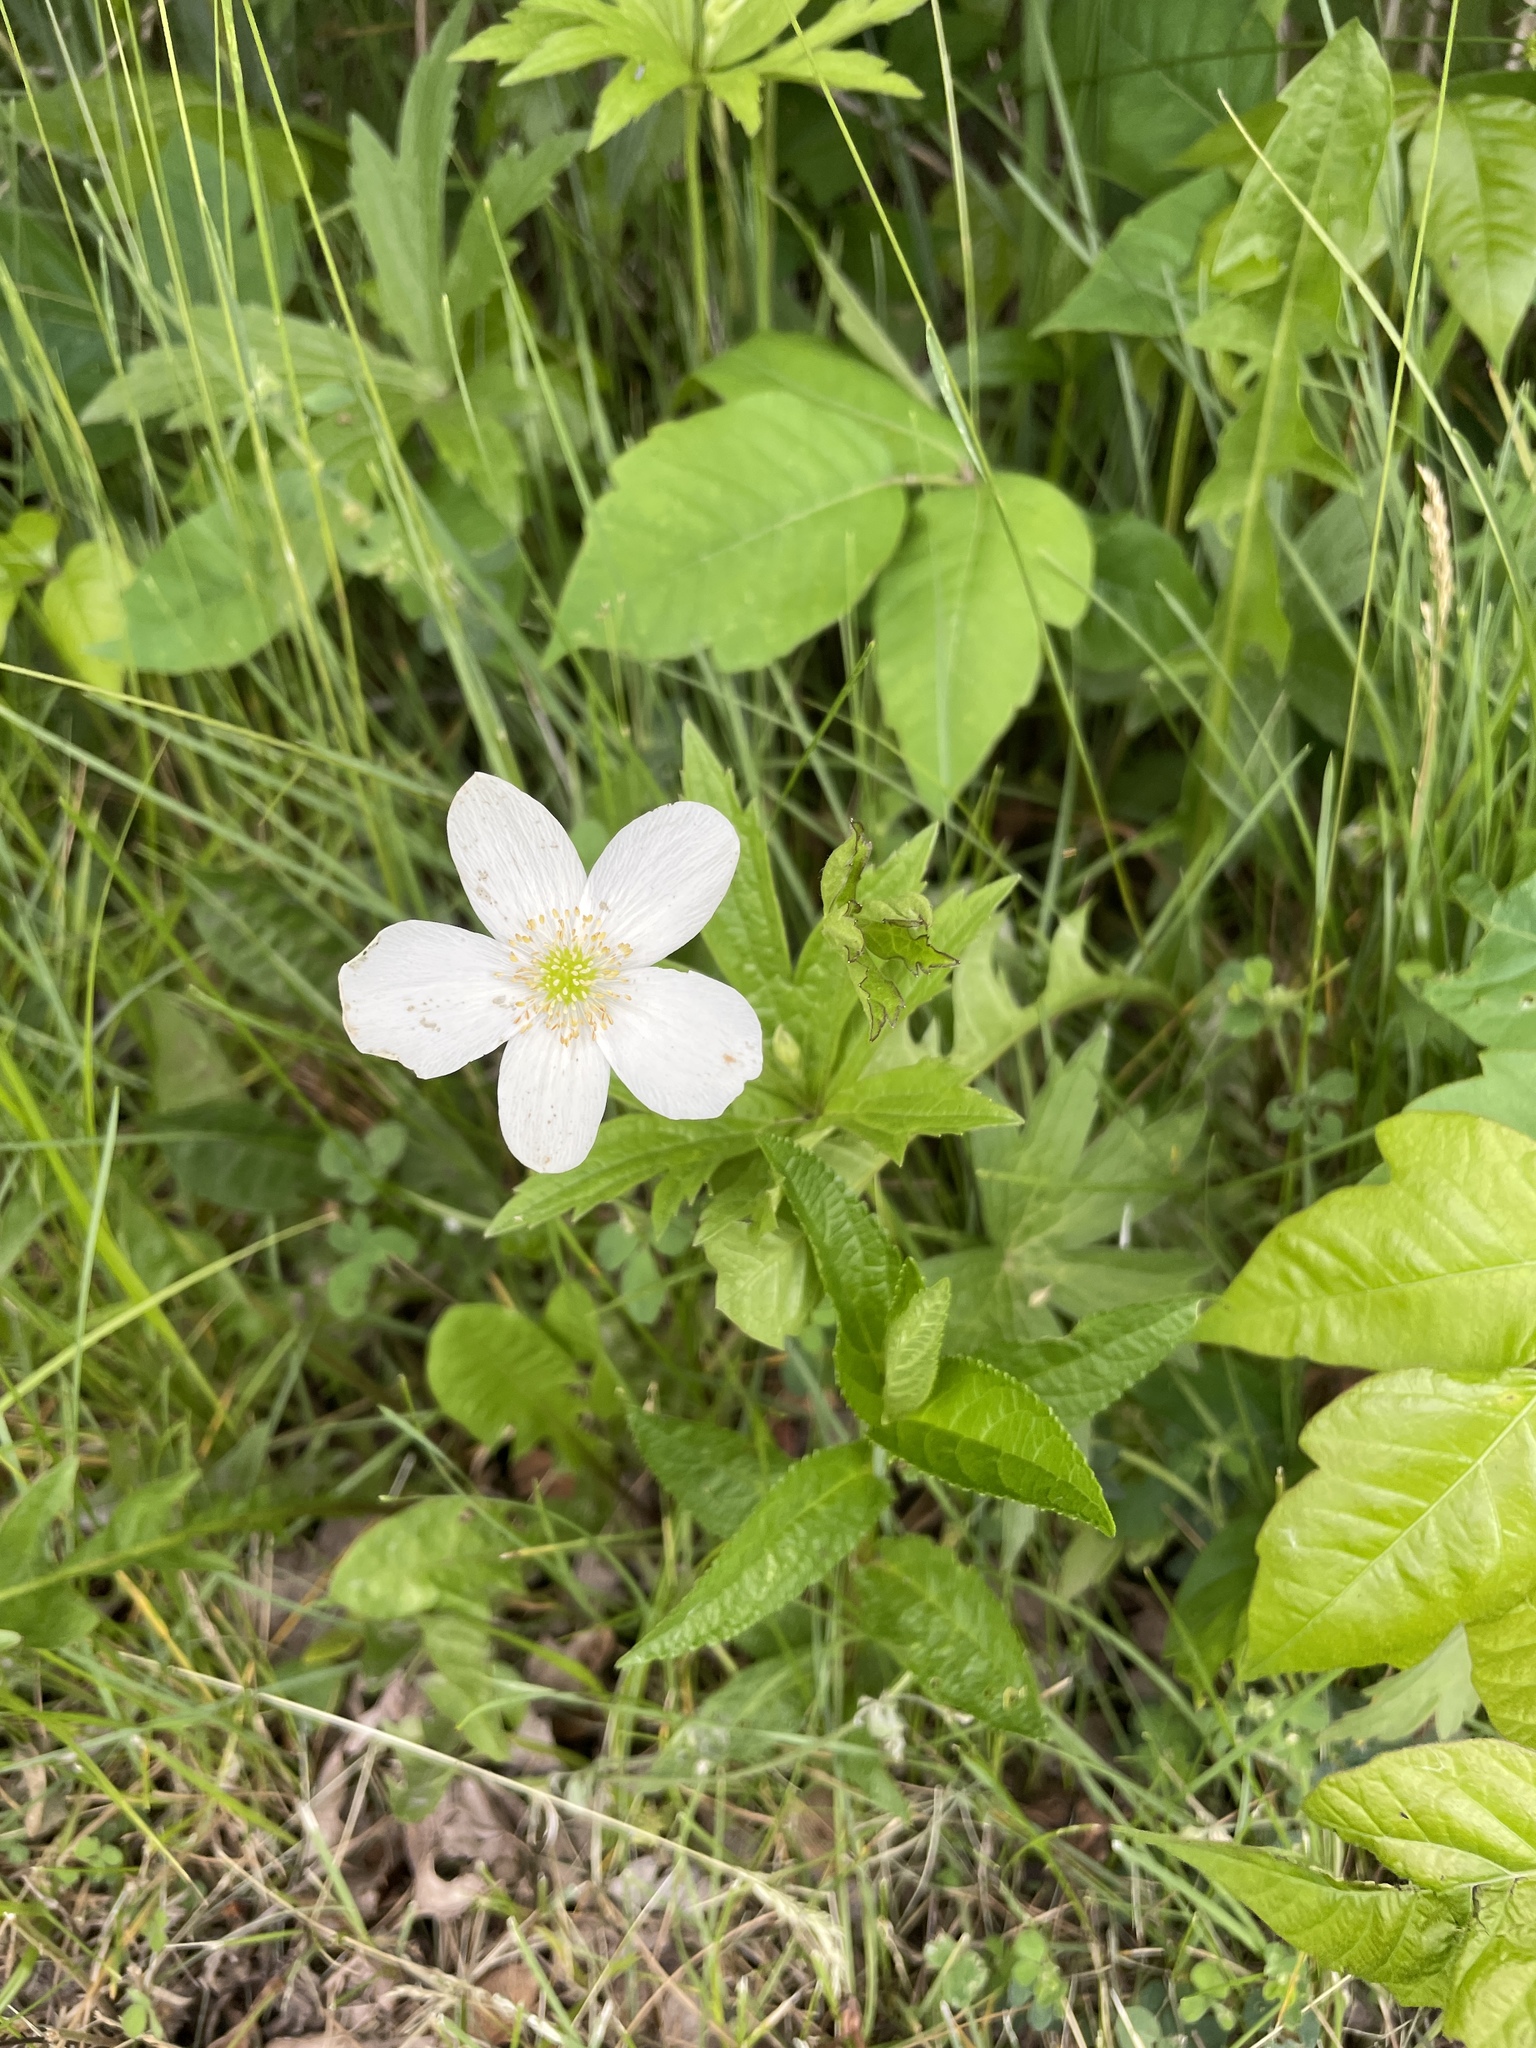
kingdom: Plantae
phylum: Tracheophyta
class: Magnoliopsida
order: Ranunculales
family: Ranunculaceae
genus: Anemonastrum
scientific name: Anemonastrum canadense
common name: Canada anemone
